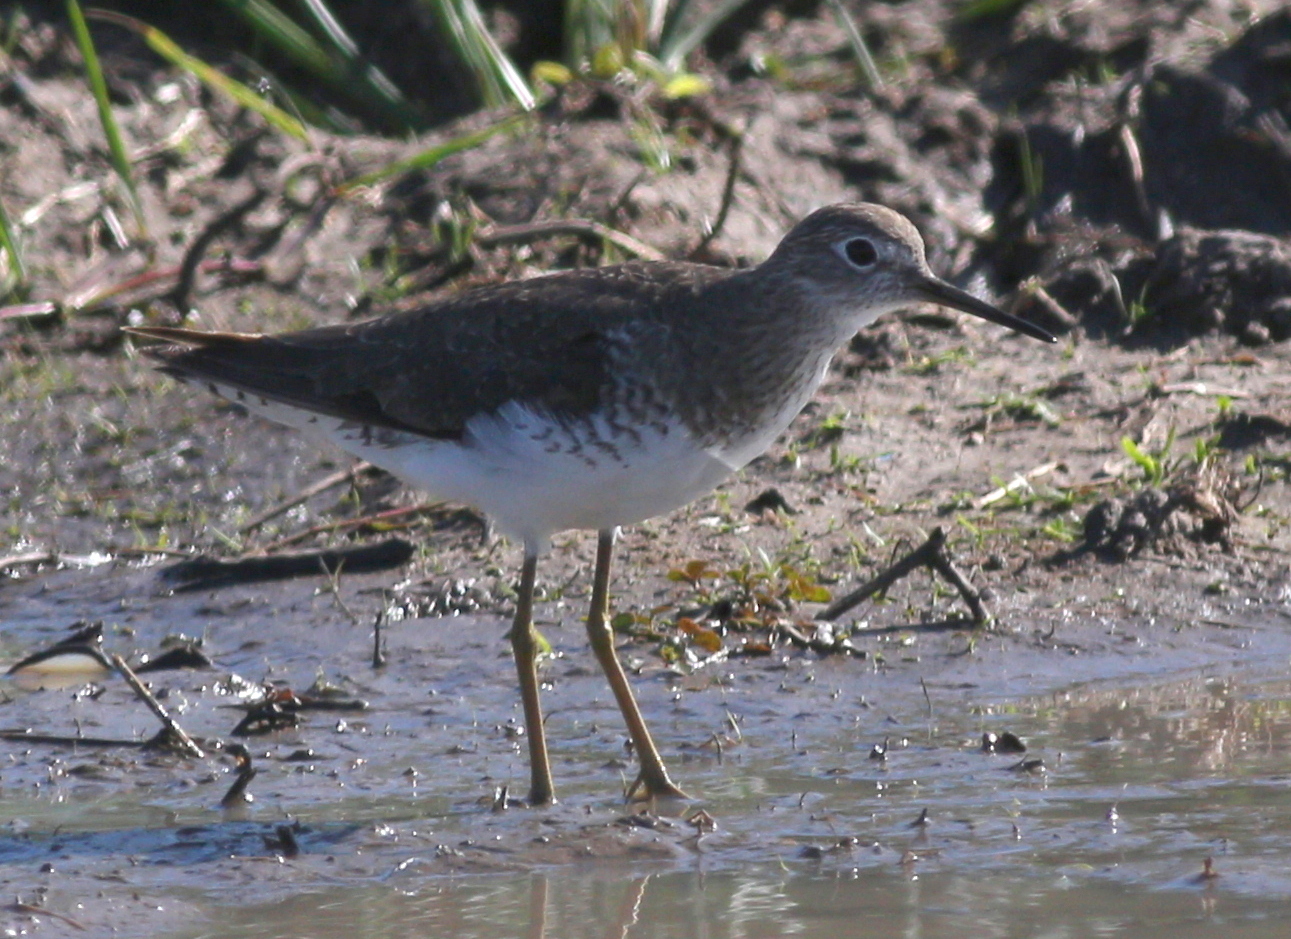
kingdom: Animalia
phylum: Chordata
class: Aves
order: Charadriiformes
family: Scolopacidae
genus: Tringa
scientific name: Tringa solitaria
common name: Solitary sandpiper
